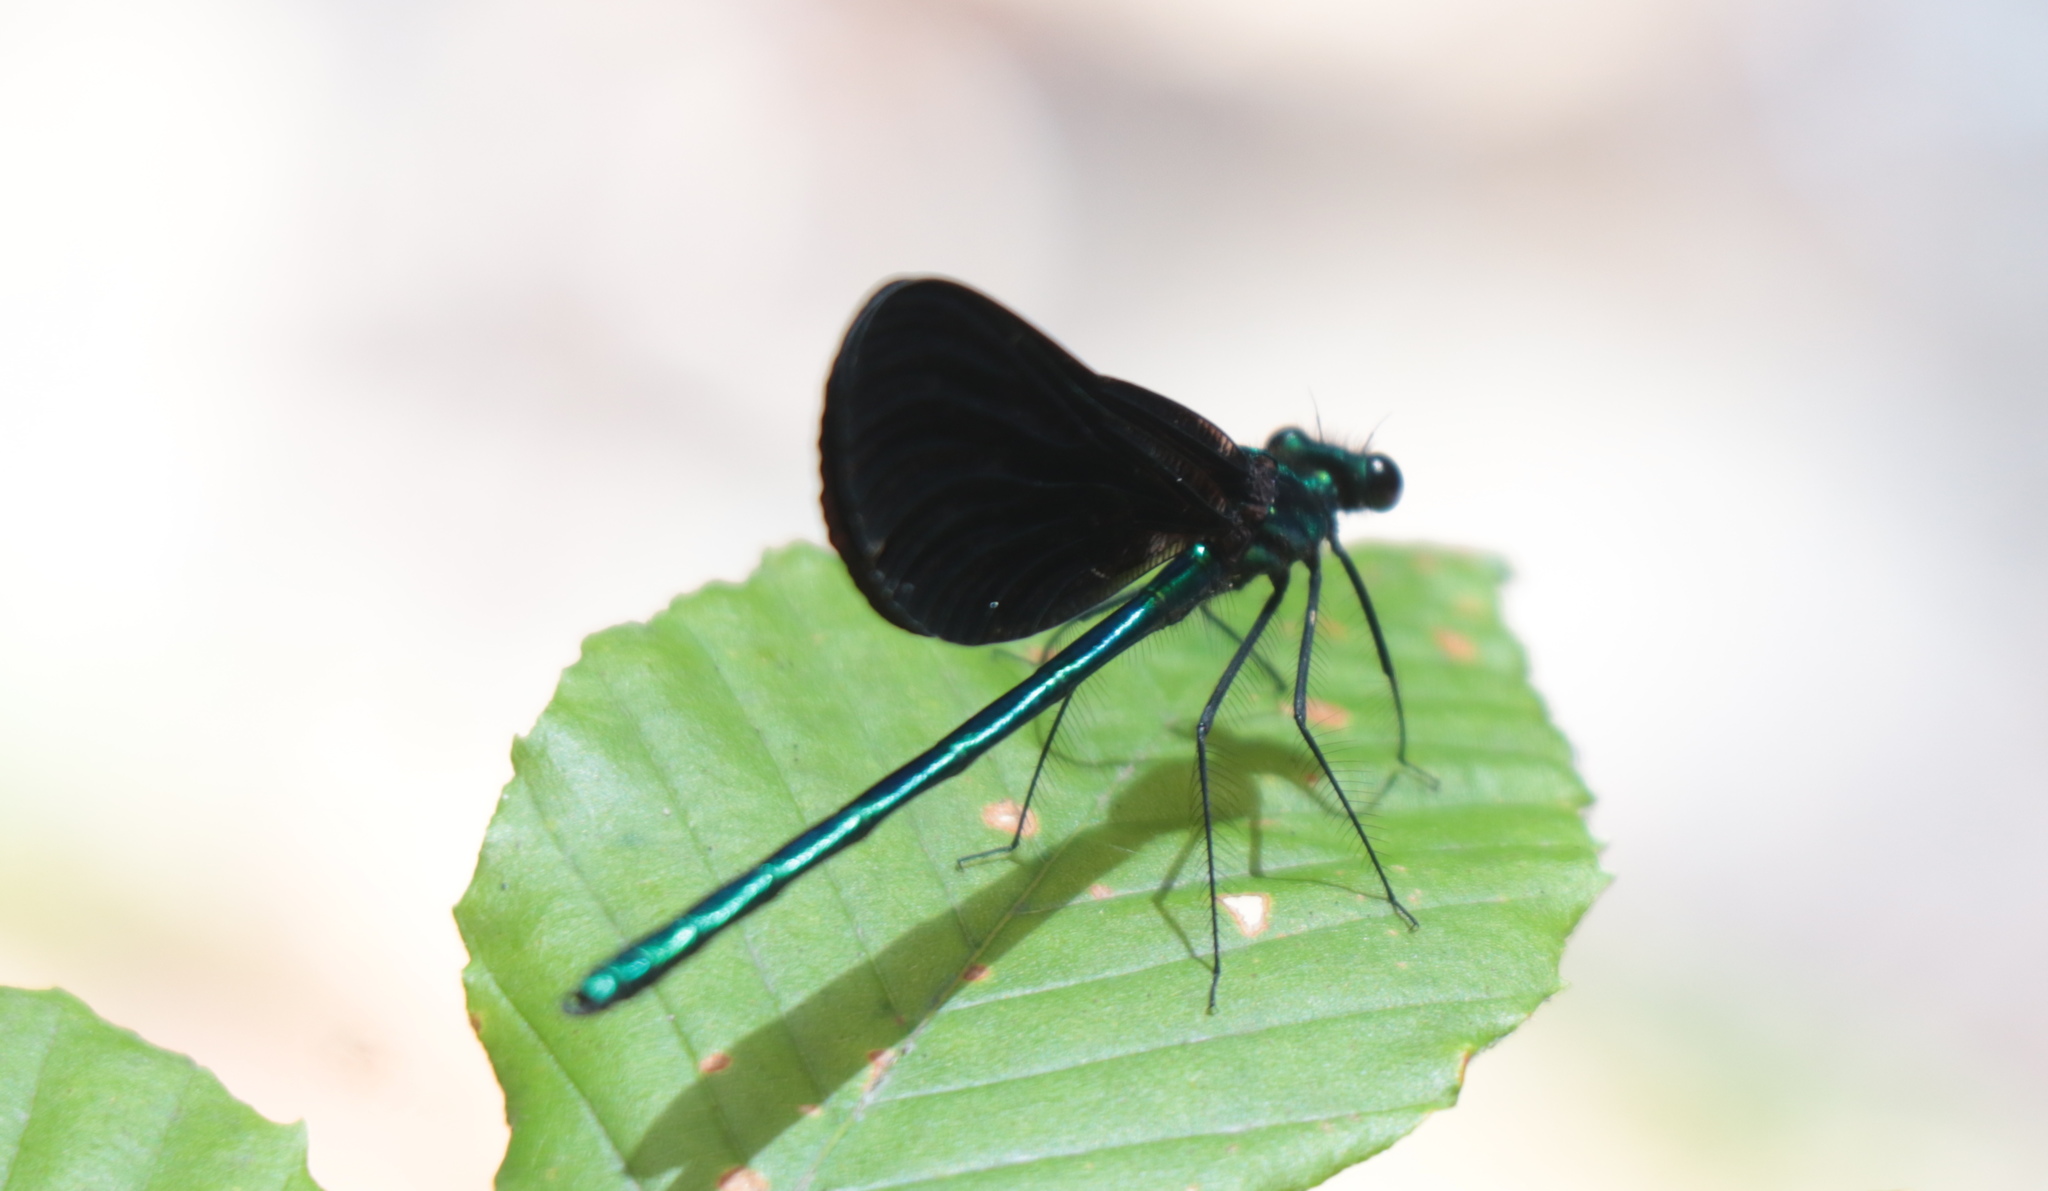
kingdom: Animalia
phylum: Arthropoda
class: Insecta
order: Odonata
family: Calopterygidae
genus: Calopteryx
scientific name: Calopteryx maculata
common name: Ebony jewelwing
